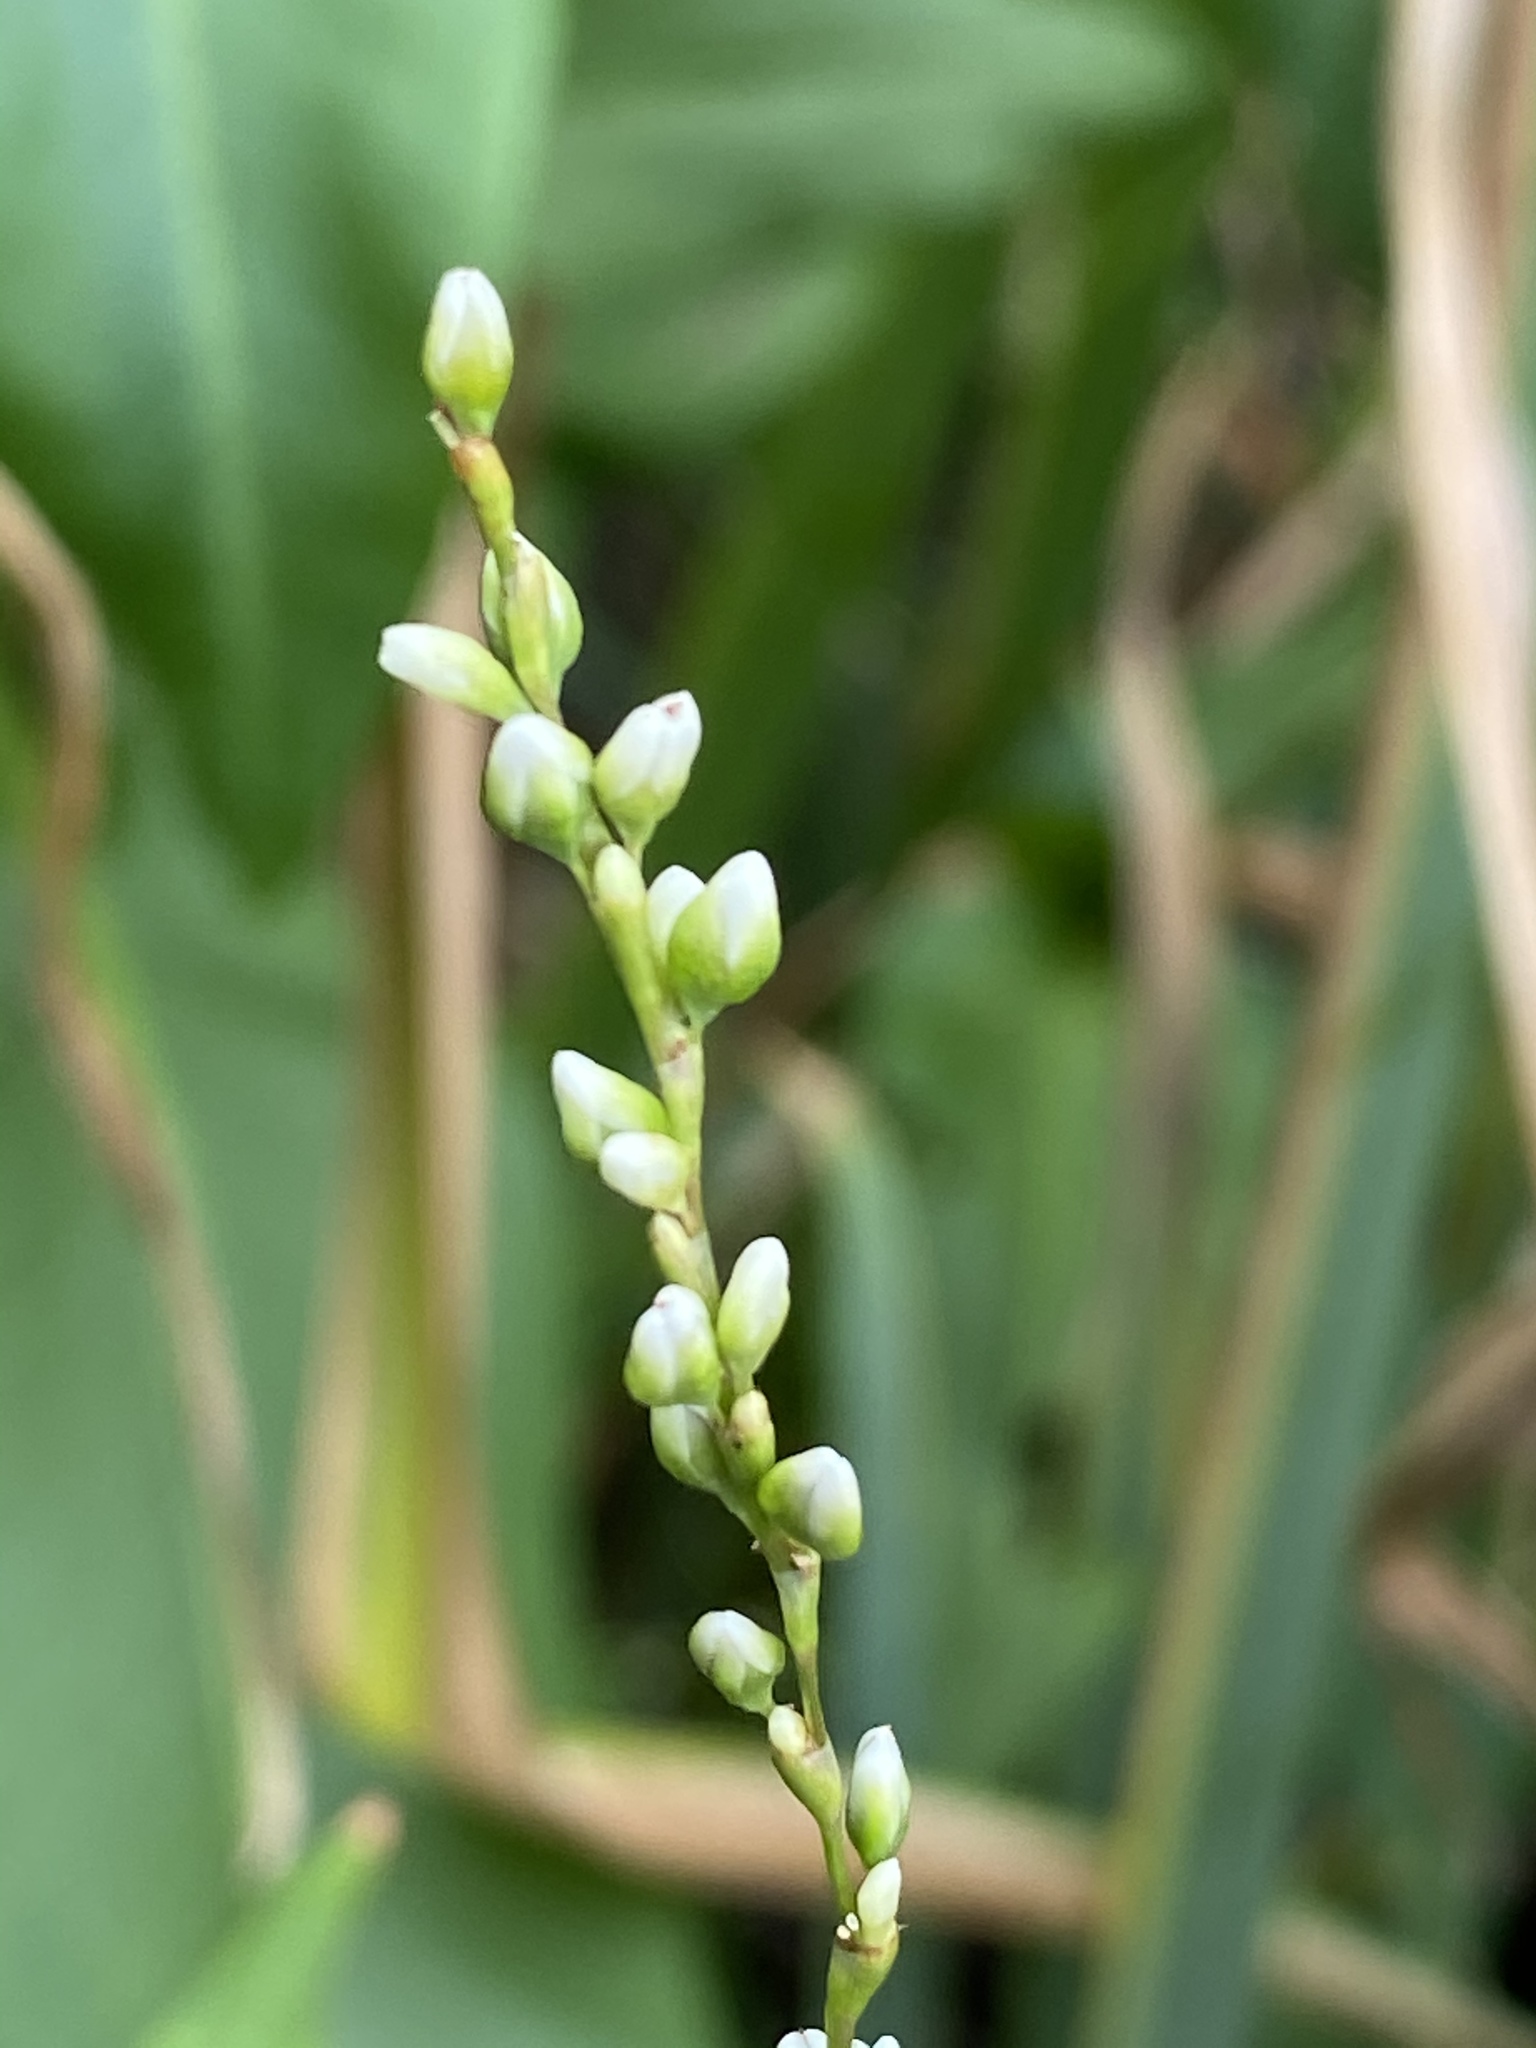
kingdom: Plantae
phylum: Tracheophyta
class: Magnoliopsida
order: Caryophyllales
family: Polygonaceae
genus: Persicaria
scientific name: Persicaria punctata
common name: Dotted smartweed
